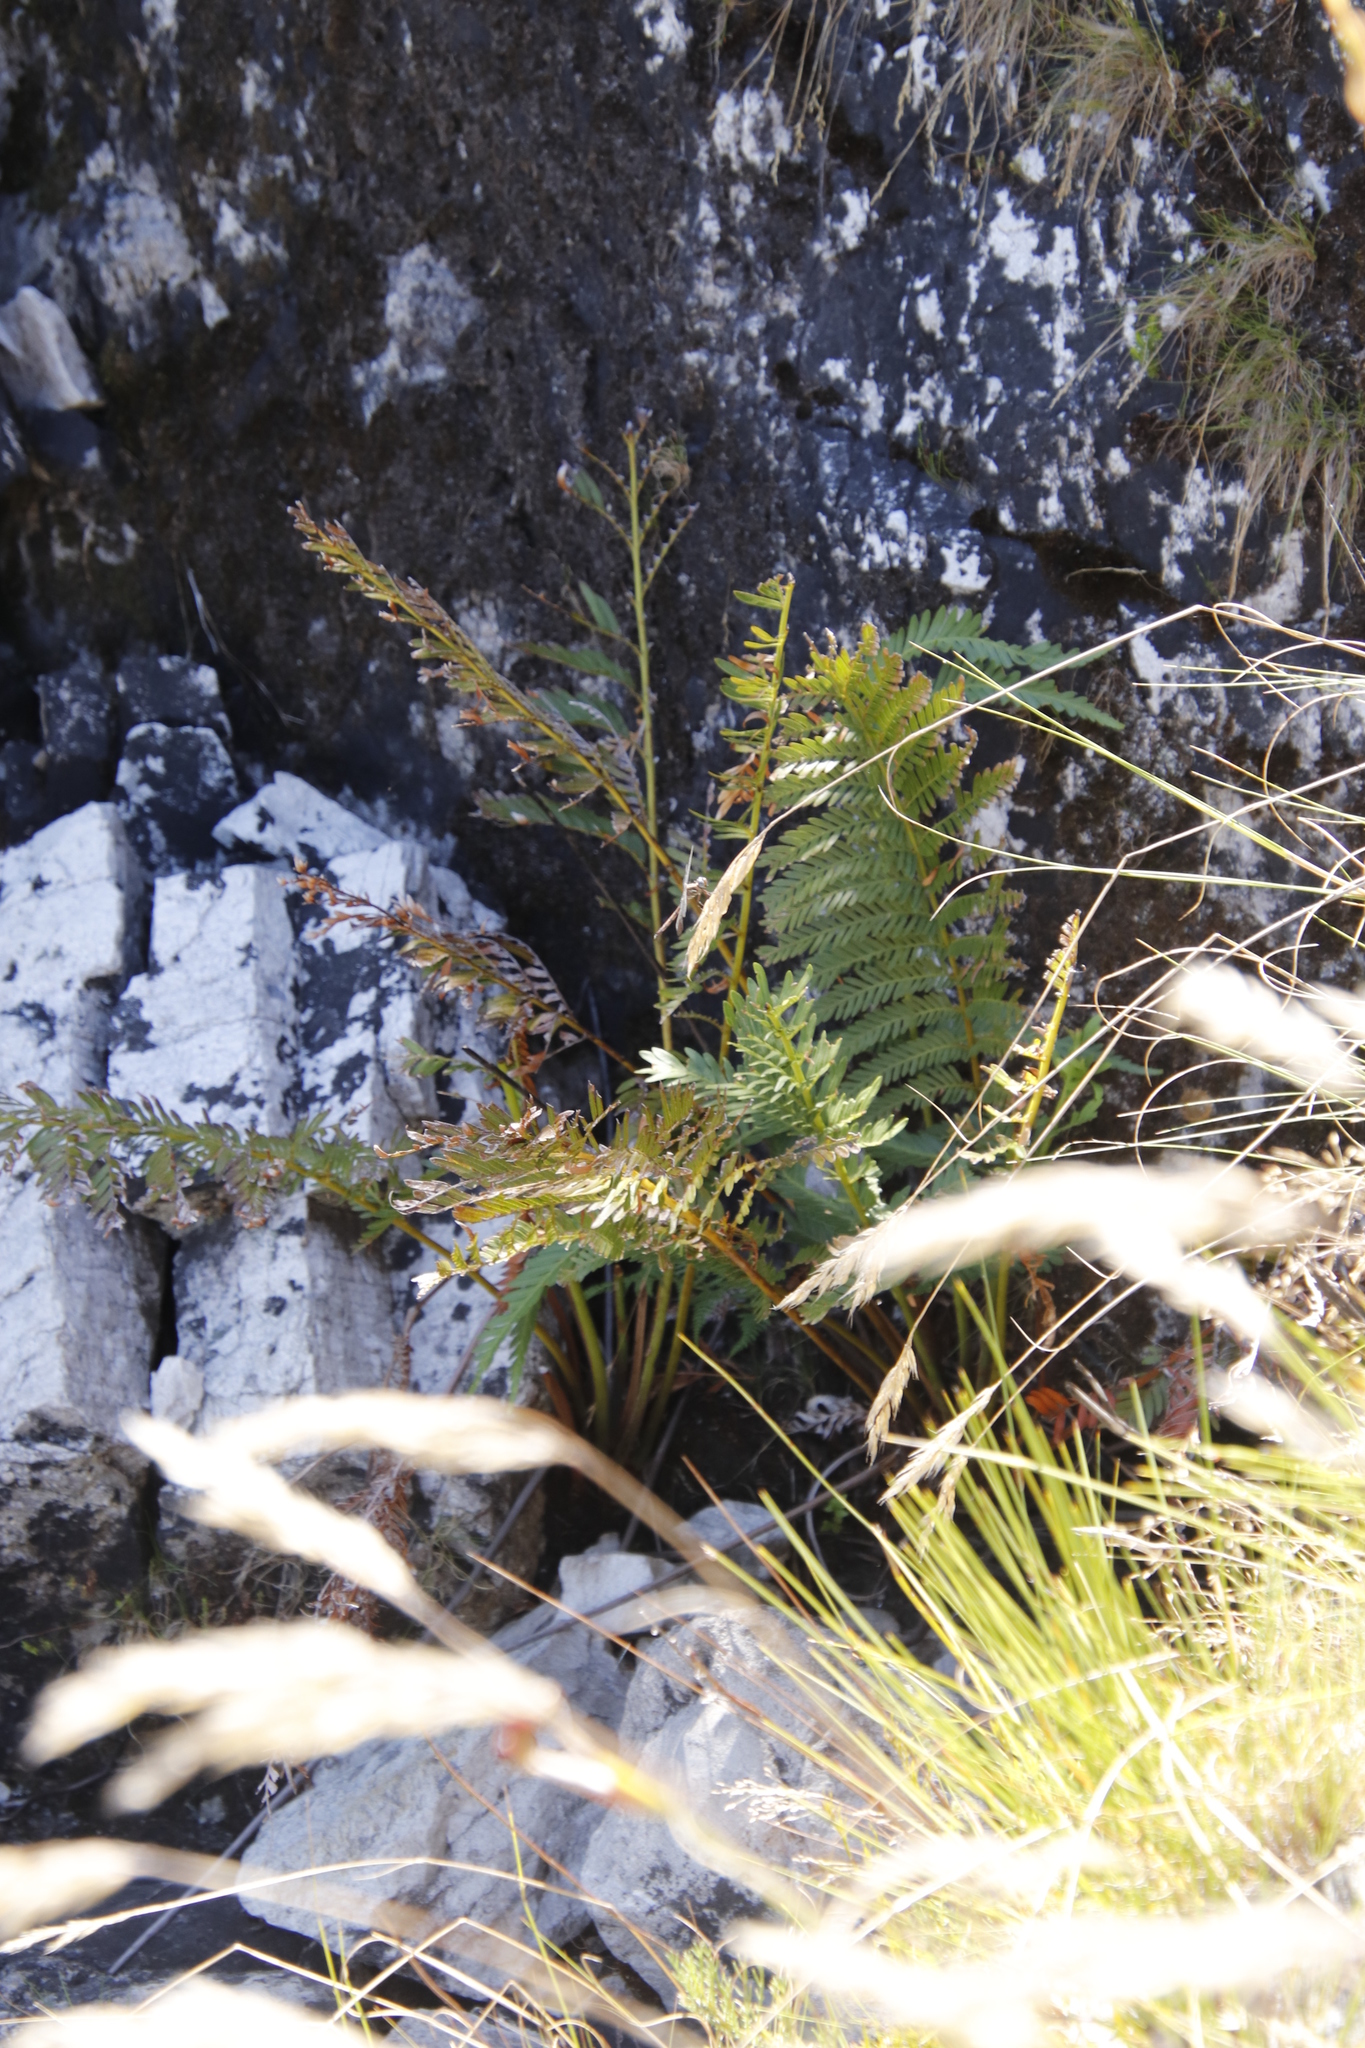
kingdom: Plantae
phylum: Tracheophyta
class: Polypodiopsida
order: Osmundales
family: Osmundaceae
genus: Todea
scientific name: Todea barbara
